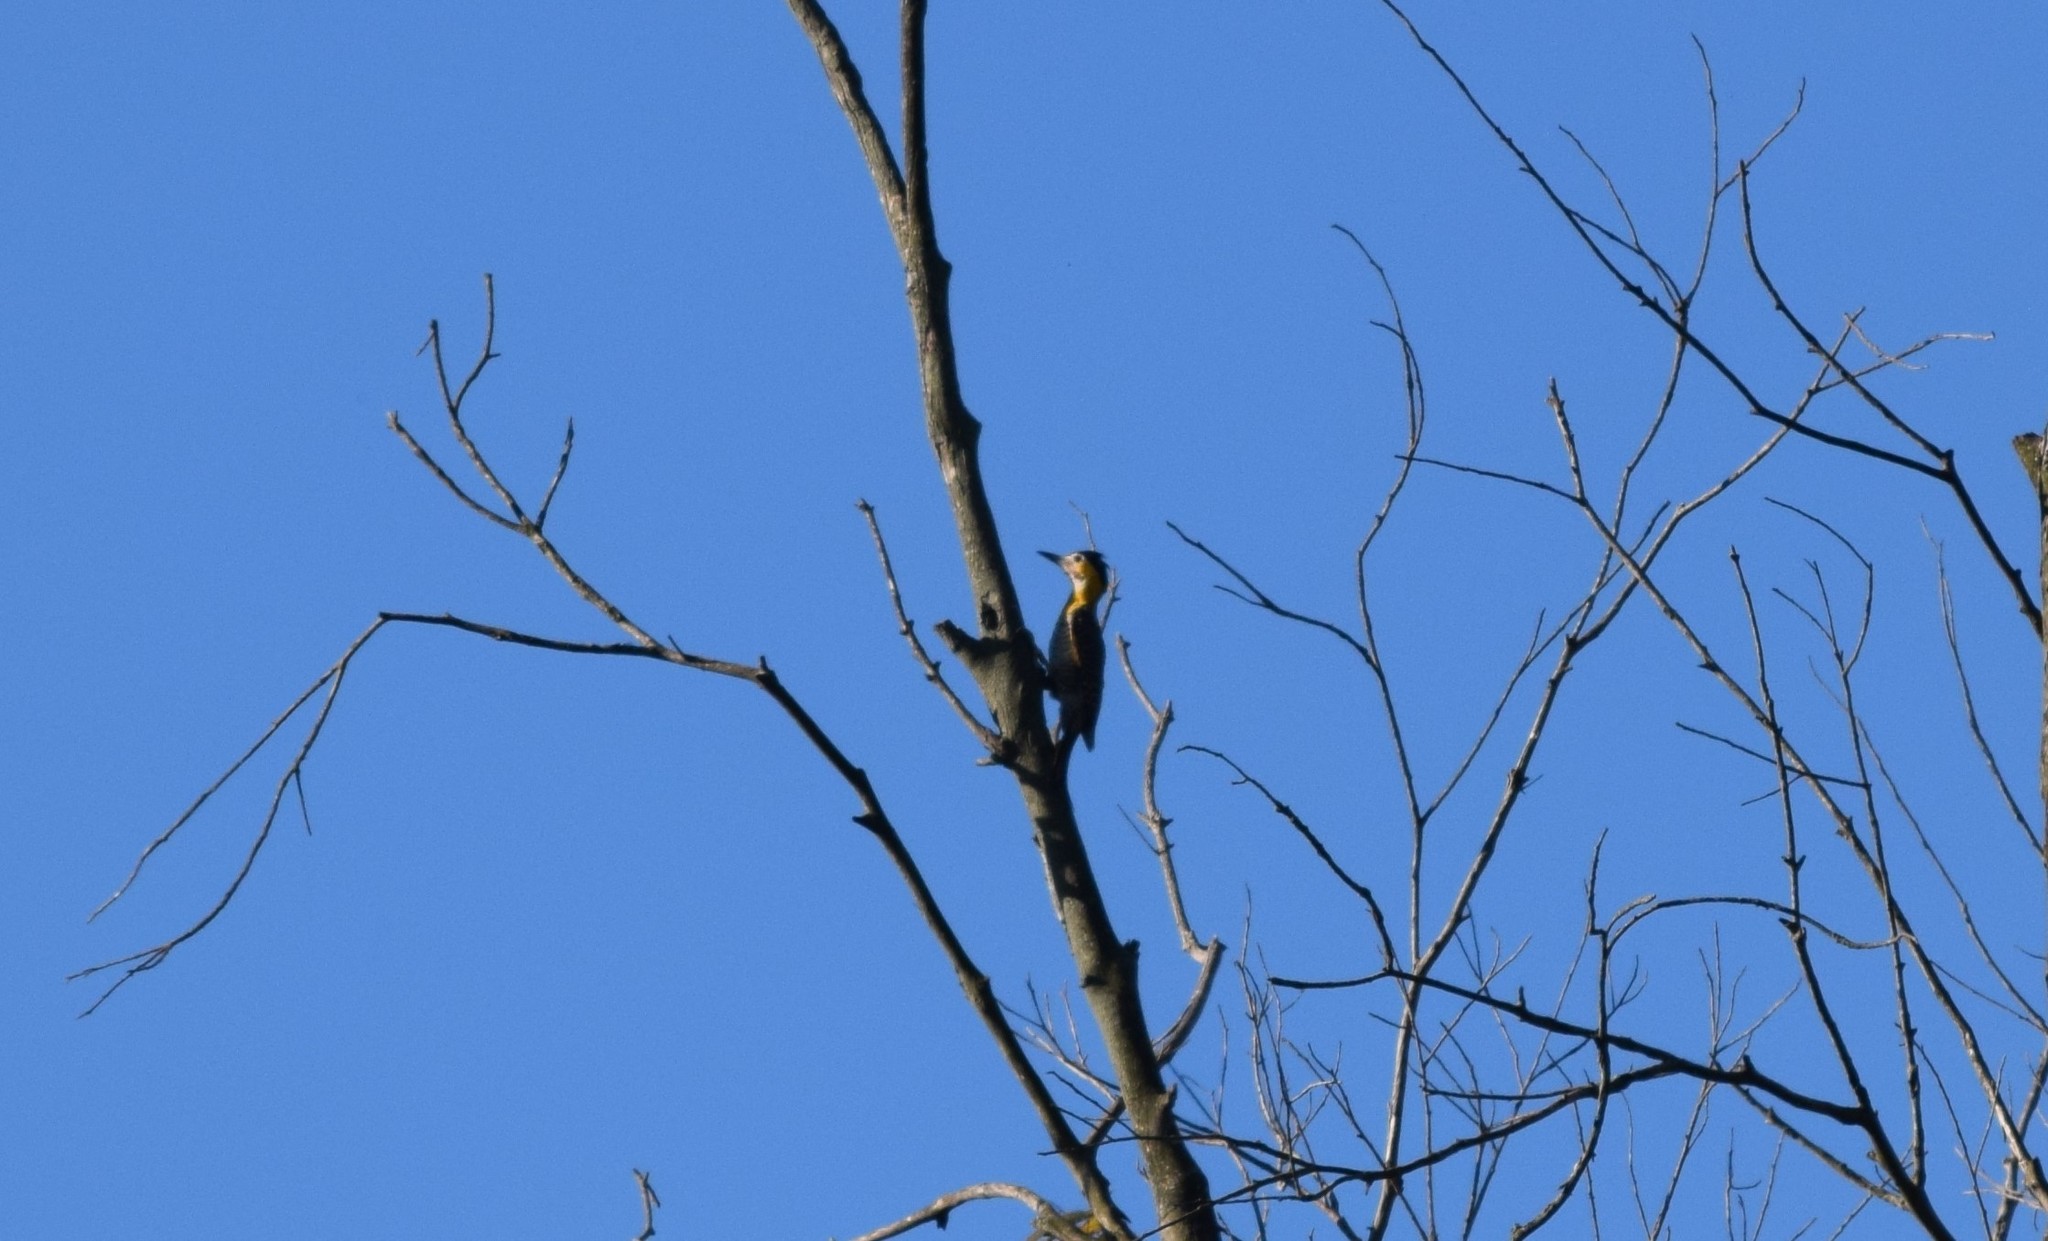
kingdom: Animalia
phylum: Chordata
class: Aves
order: Piciformes
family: Picidae
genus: Colaptes
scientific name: Colaptes campestris
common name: Campo flicker
